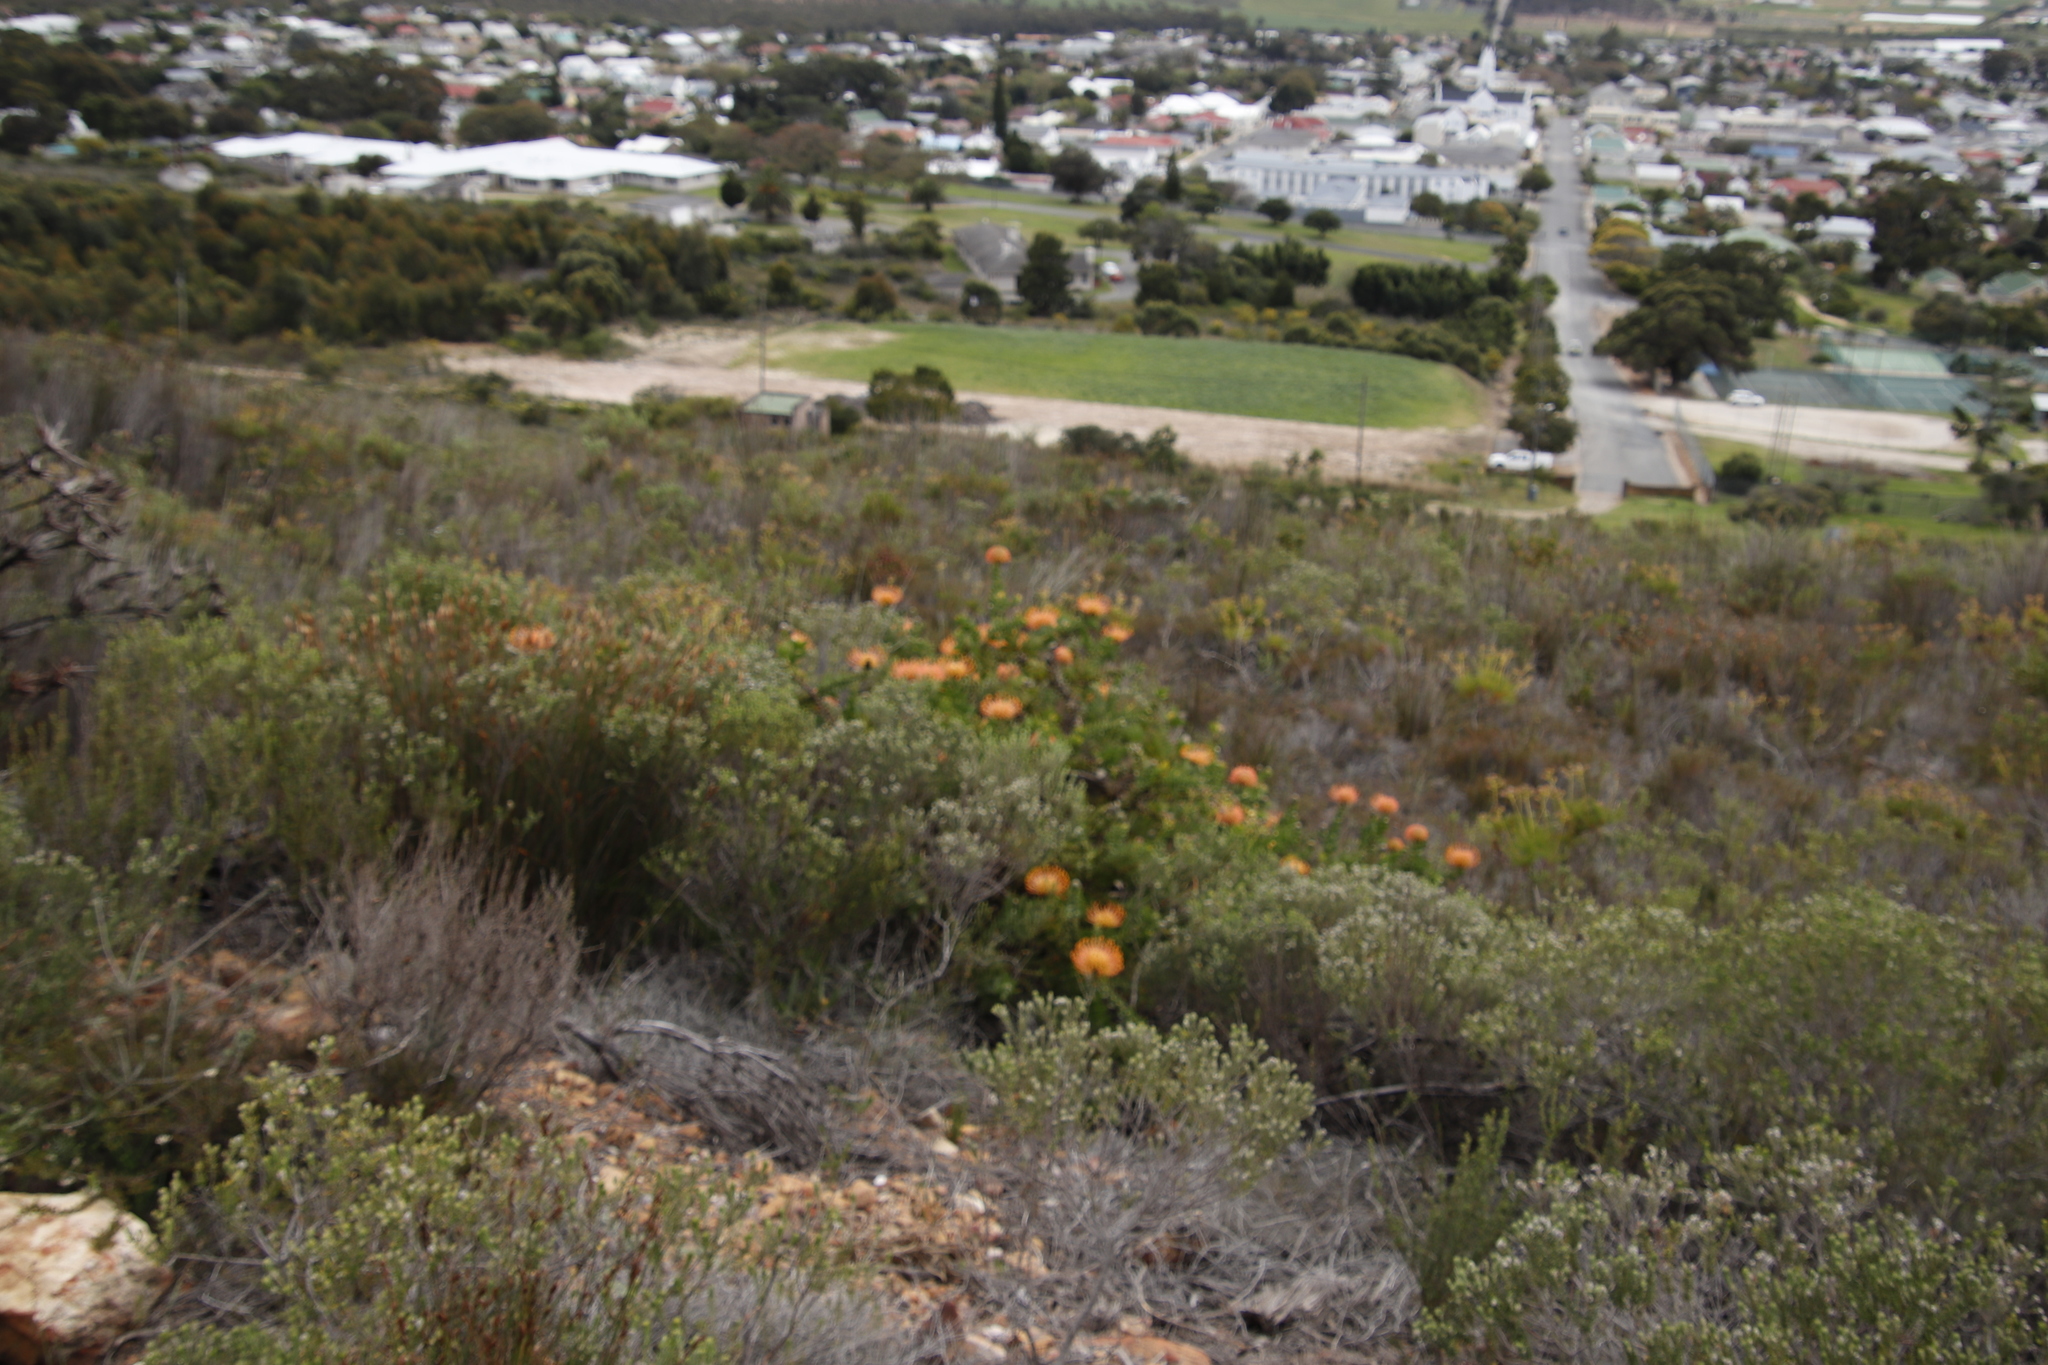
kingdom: Plantae
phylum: Tracheophyta
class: Magnoliopsida
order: Proteales
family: Proteaceae
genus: Leucospermum
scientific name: Leucospermum cordifolium
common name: Red pincushion-protea
